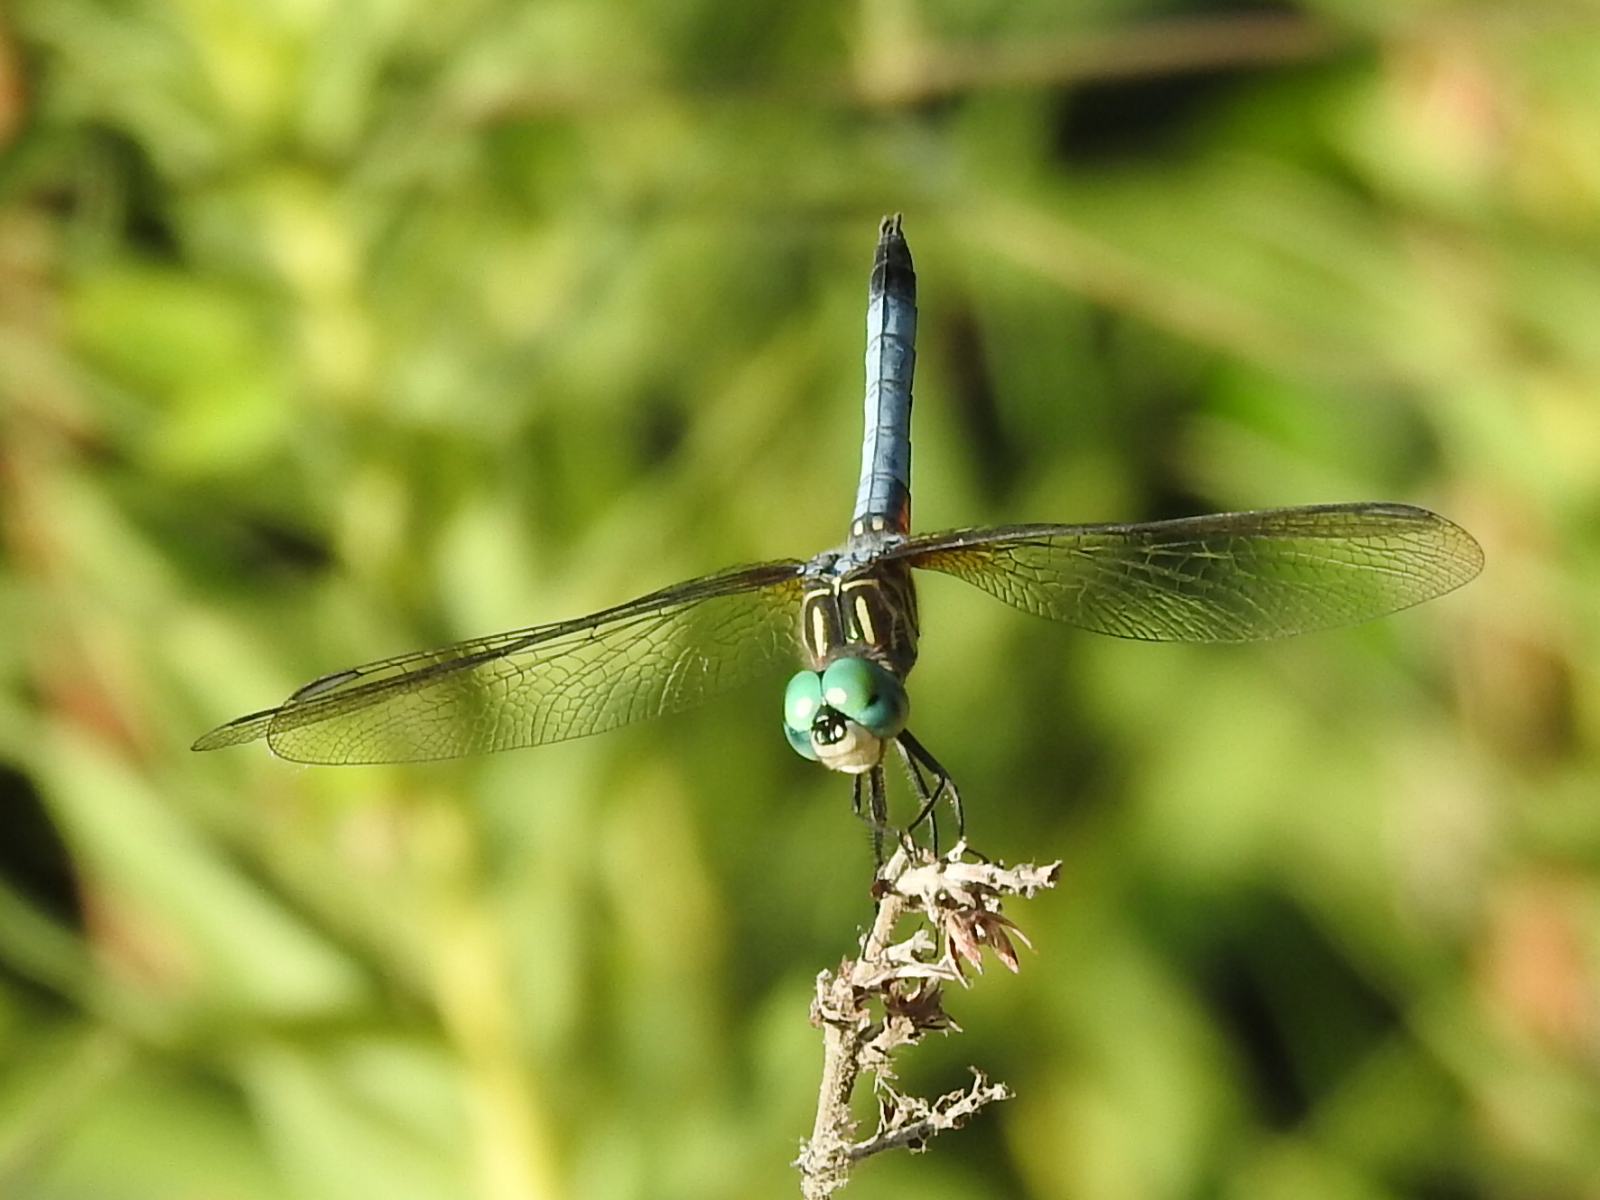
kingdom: Animalia
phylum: Arthropoda
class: Insecta
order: Odonata
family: Libellulidae
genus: Pachydiplax
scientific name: Pachydiplax longipennis
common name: Blue dasher
